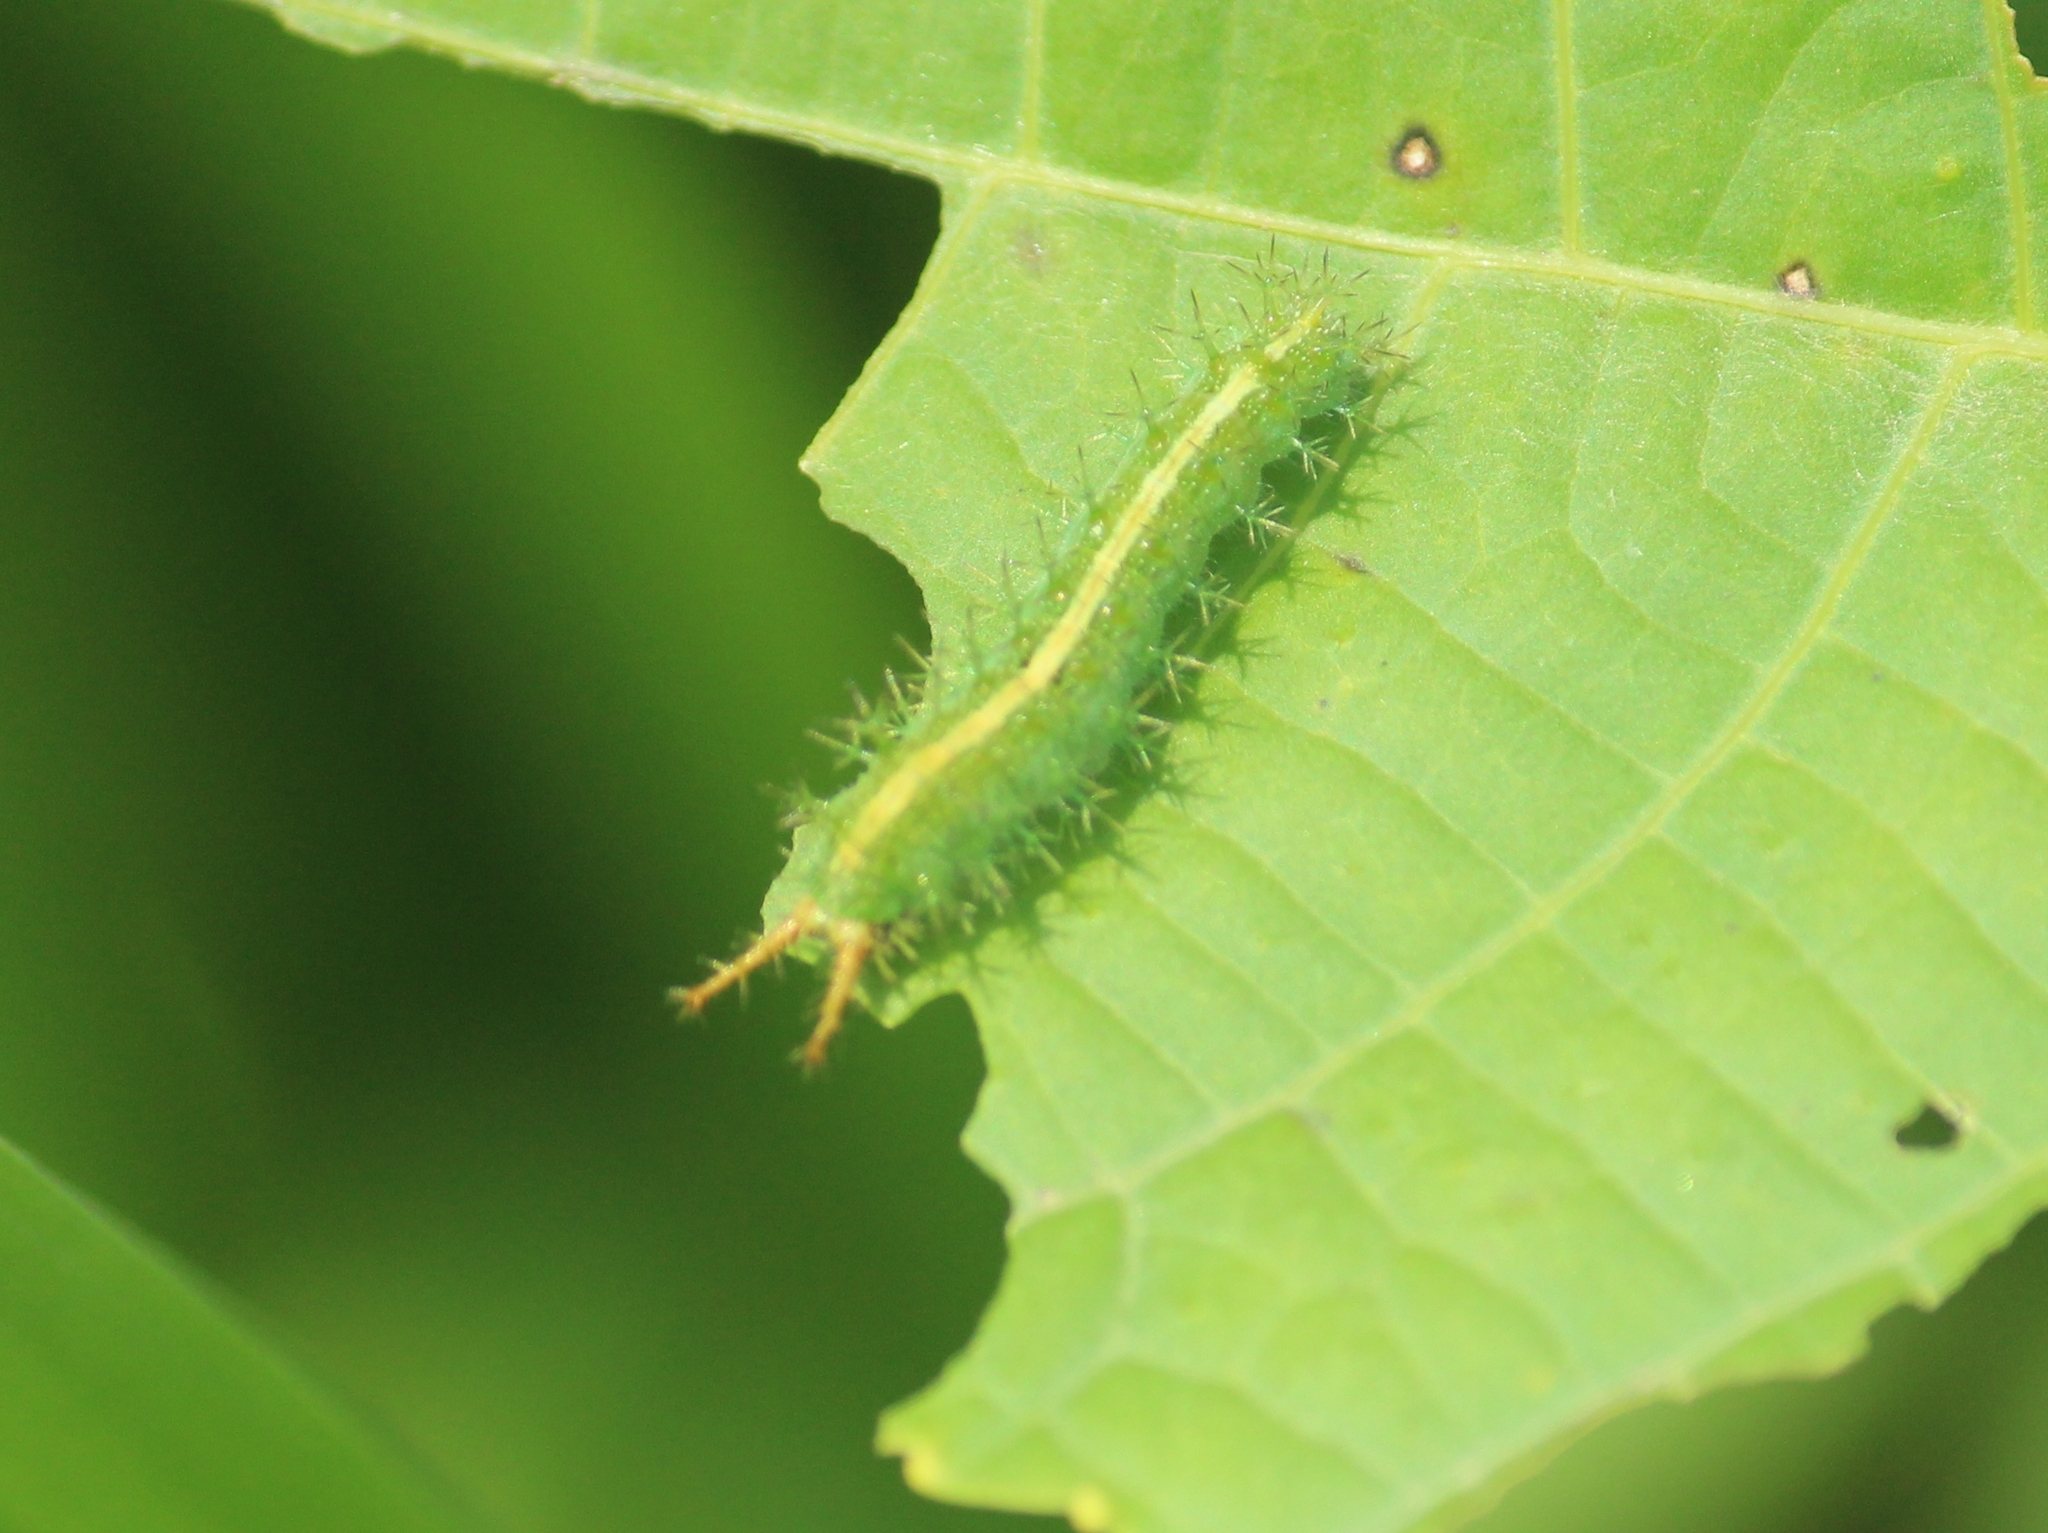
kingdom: Animalia
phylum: Arthropoda
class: Insecta
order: Lepidoptera
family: Nymphalidae
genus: Ariadne
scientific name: Ariadne merione
